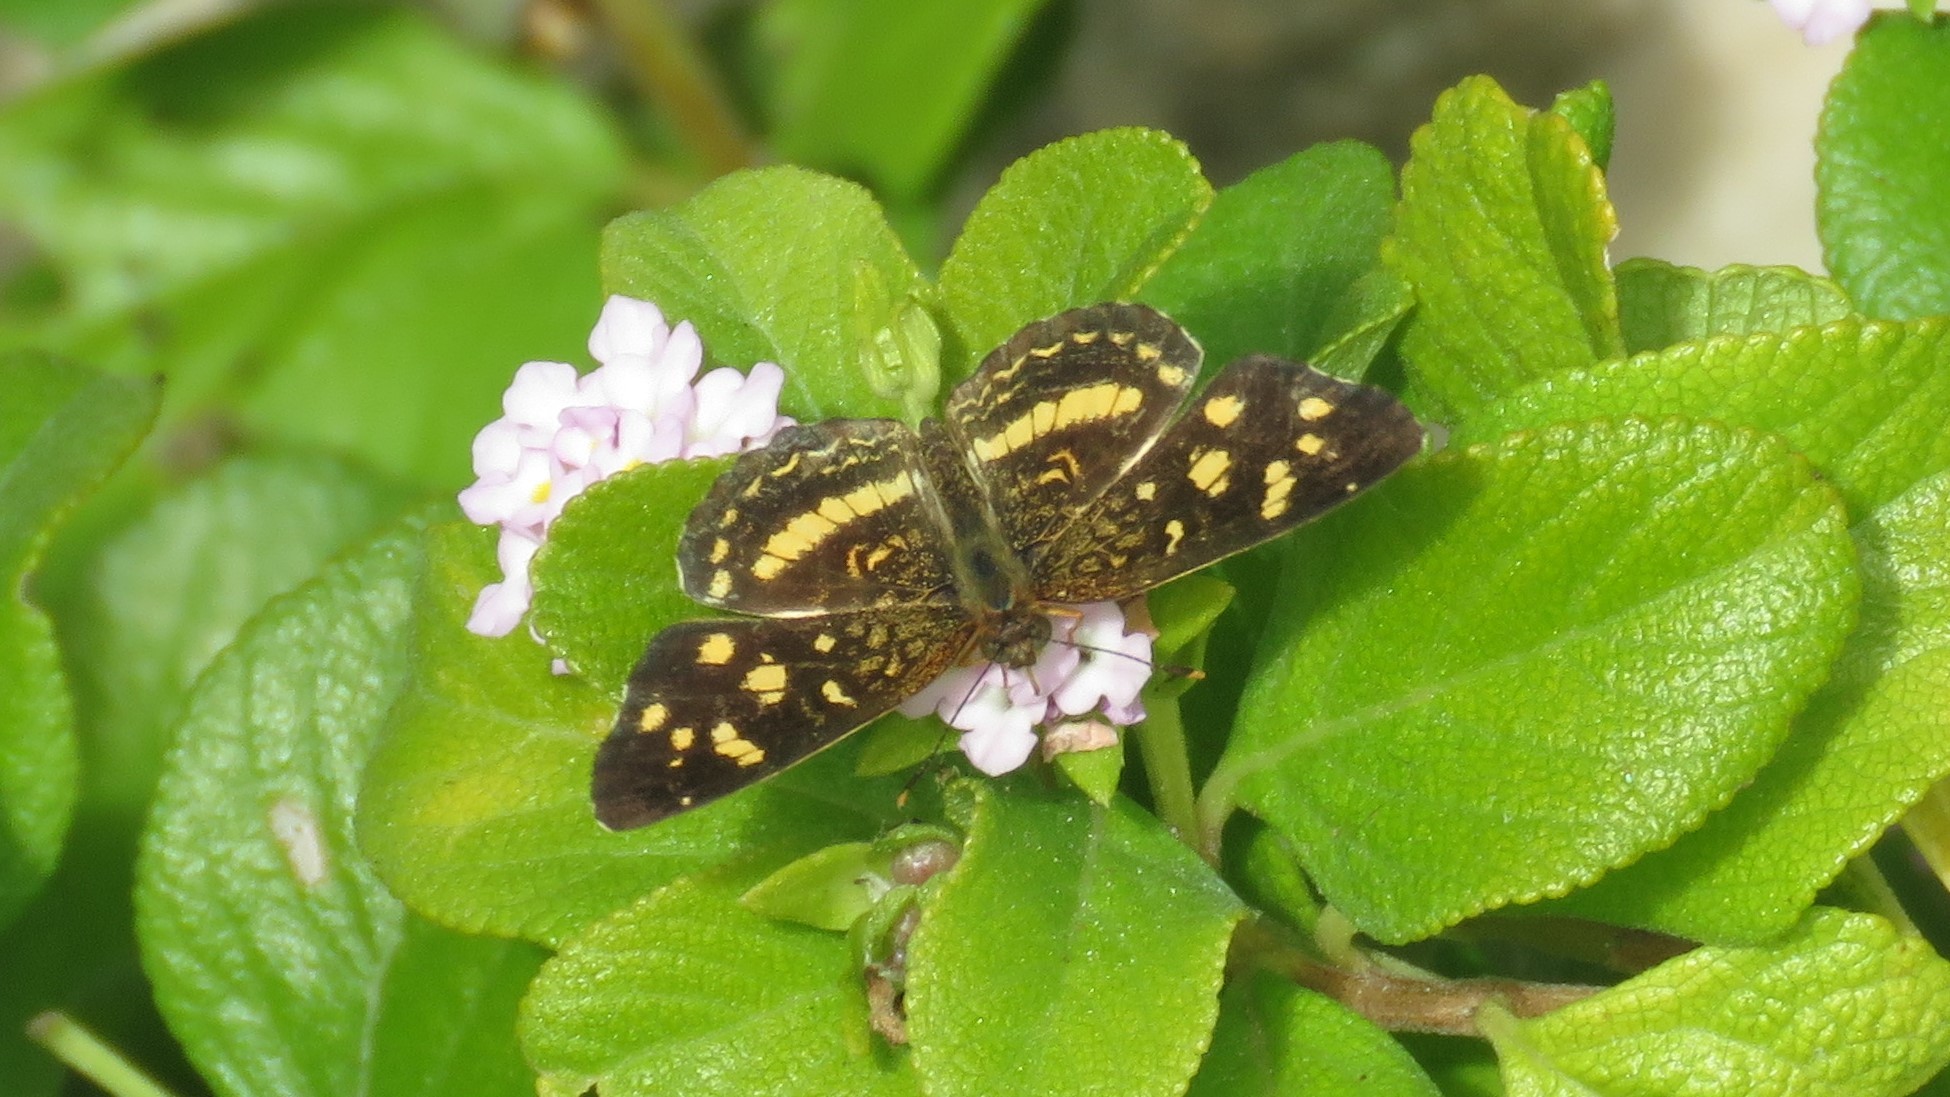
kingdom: Animalia
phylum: Arthropoda
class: Insecta
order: Lepidoptera
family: Nymphalidae
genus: Anthanassa
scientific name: Anthanassa tulcis
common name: Pale-banded crescent
